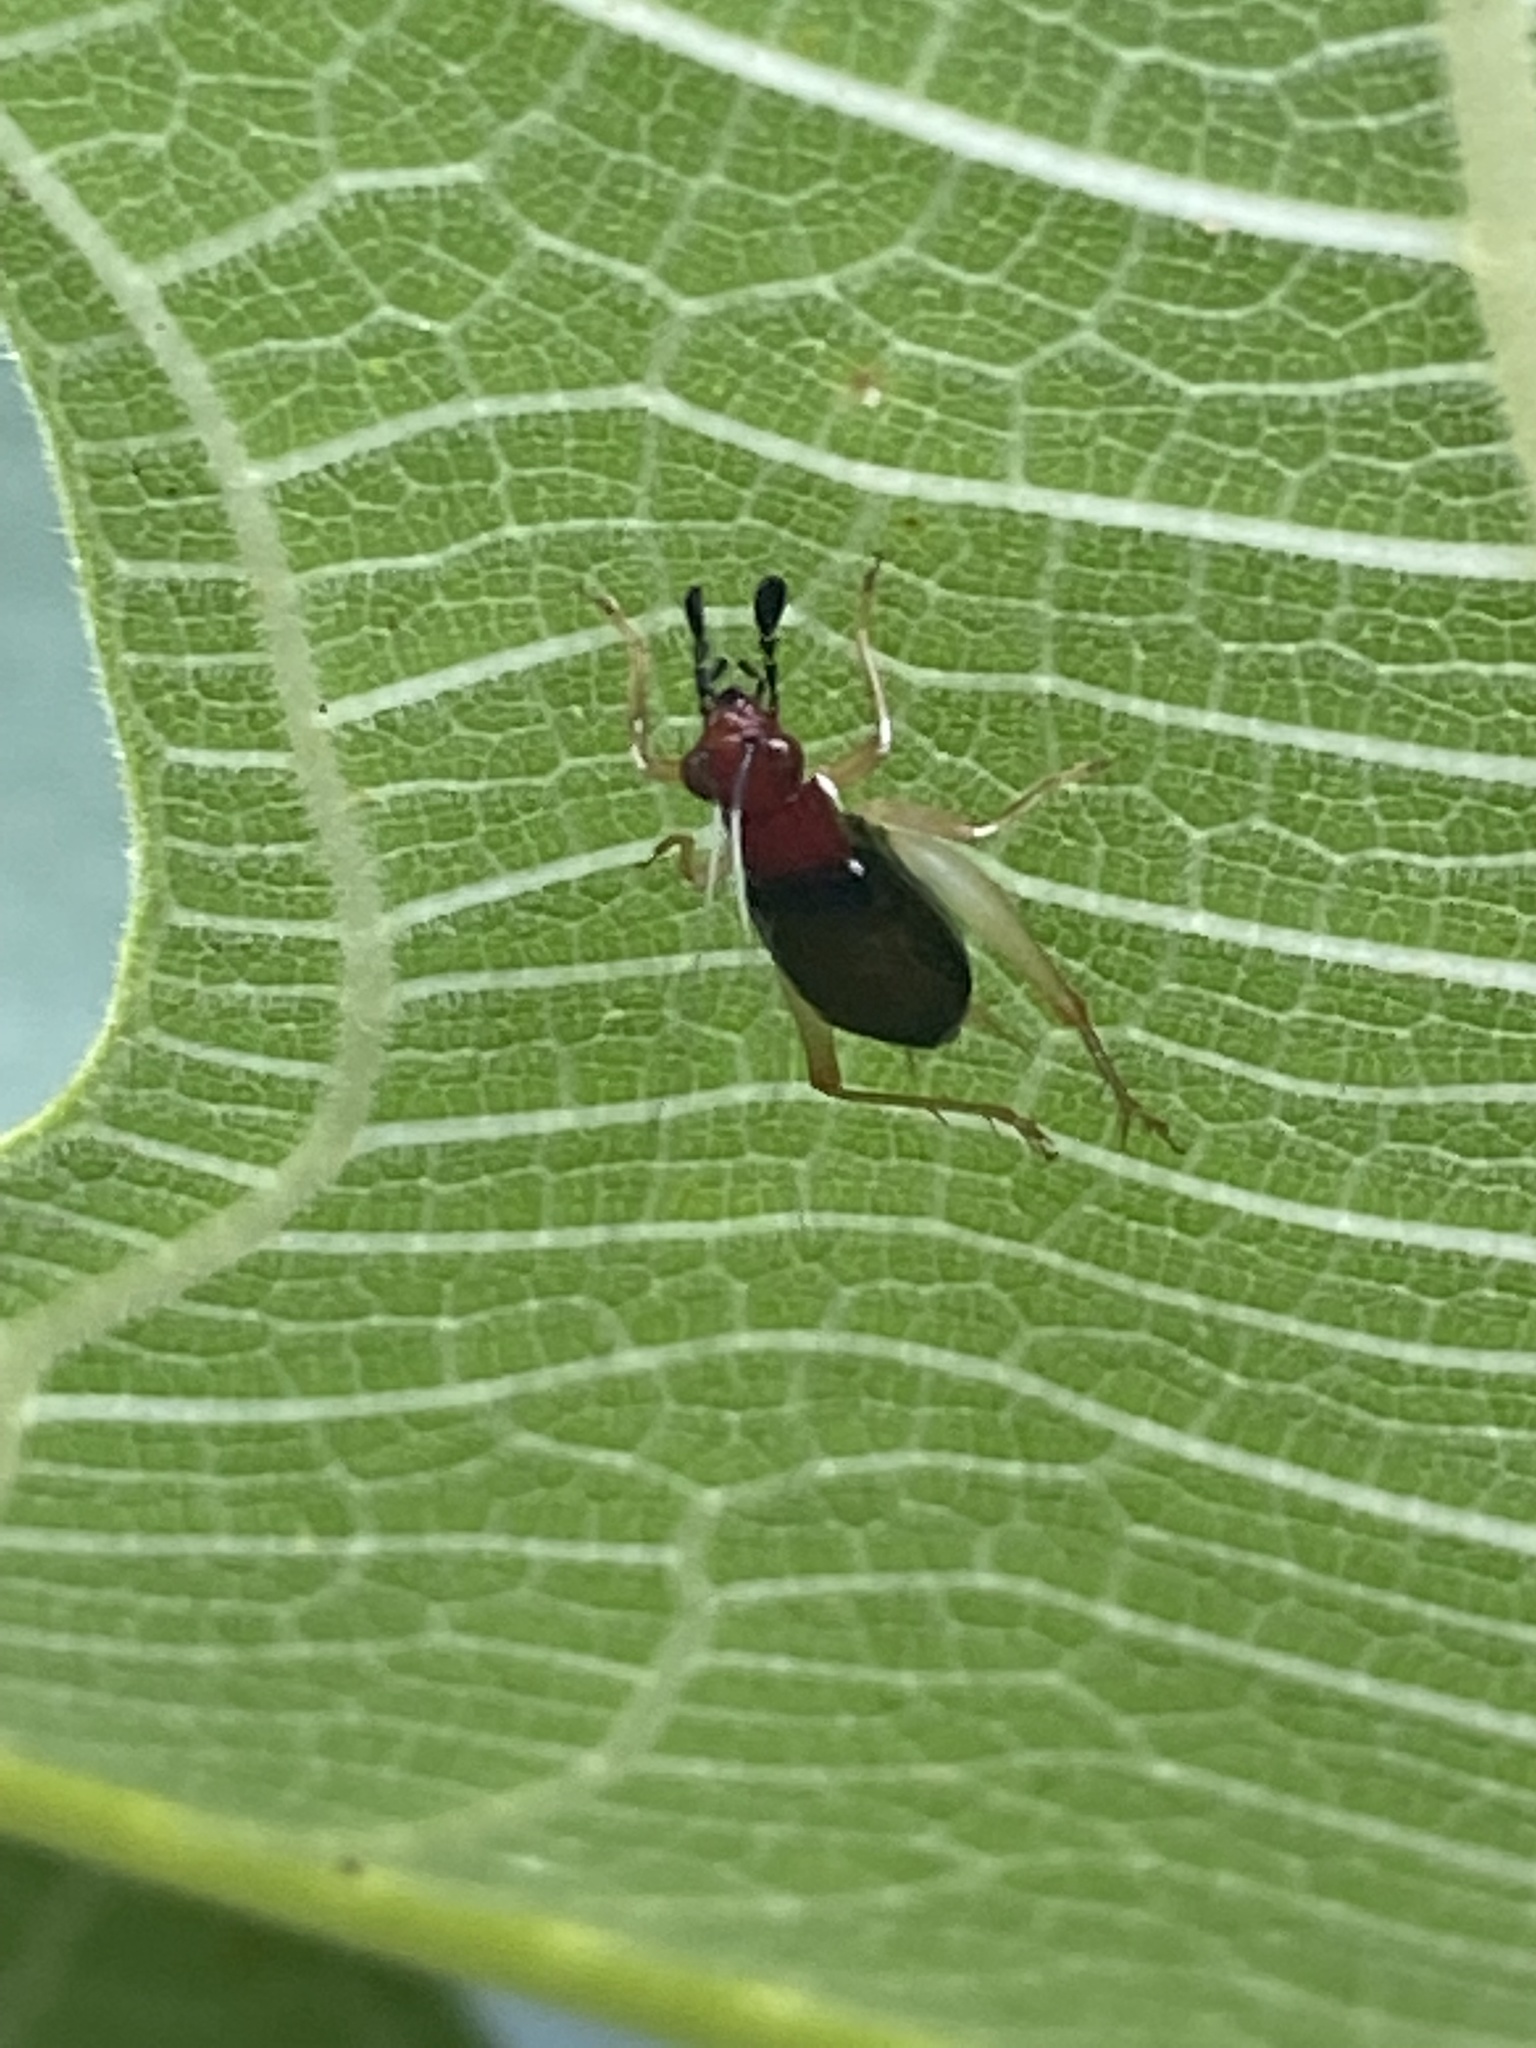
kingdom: Animalia
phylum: Arthropoda
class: Insecta
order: Orthoptera
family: Trigonidiidae
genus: Phyllopalpus
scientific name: Phyllopalpus pulchellus
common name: Handsome trig
